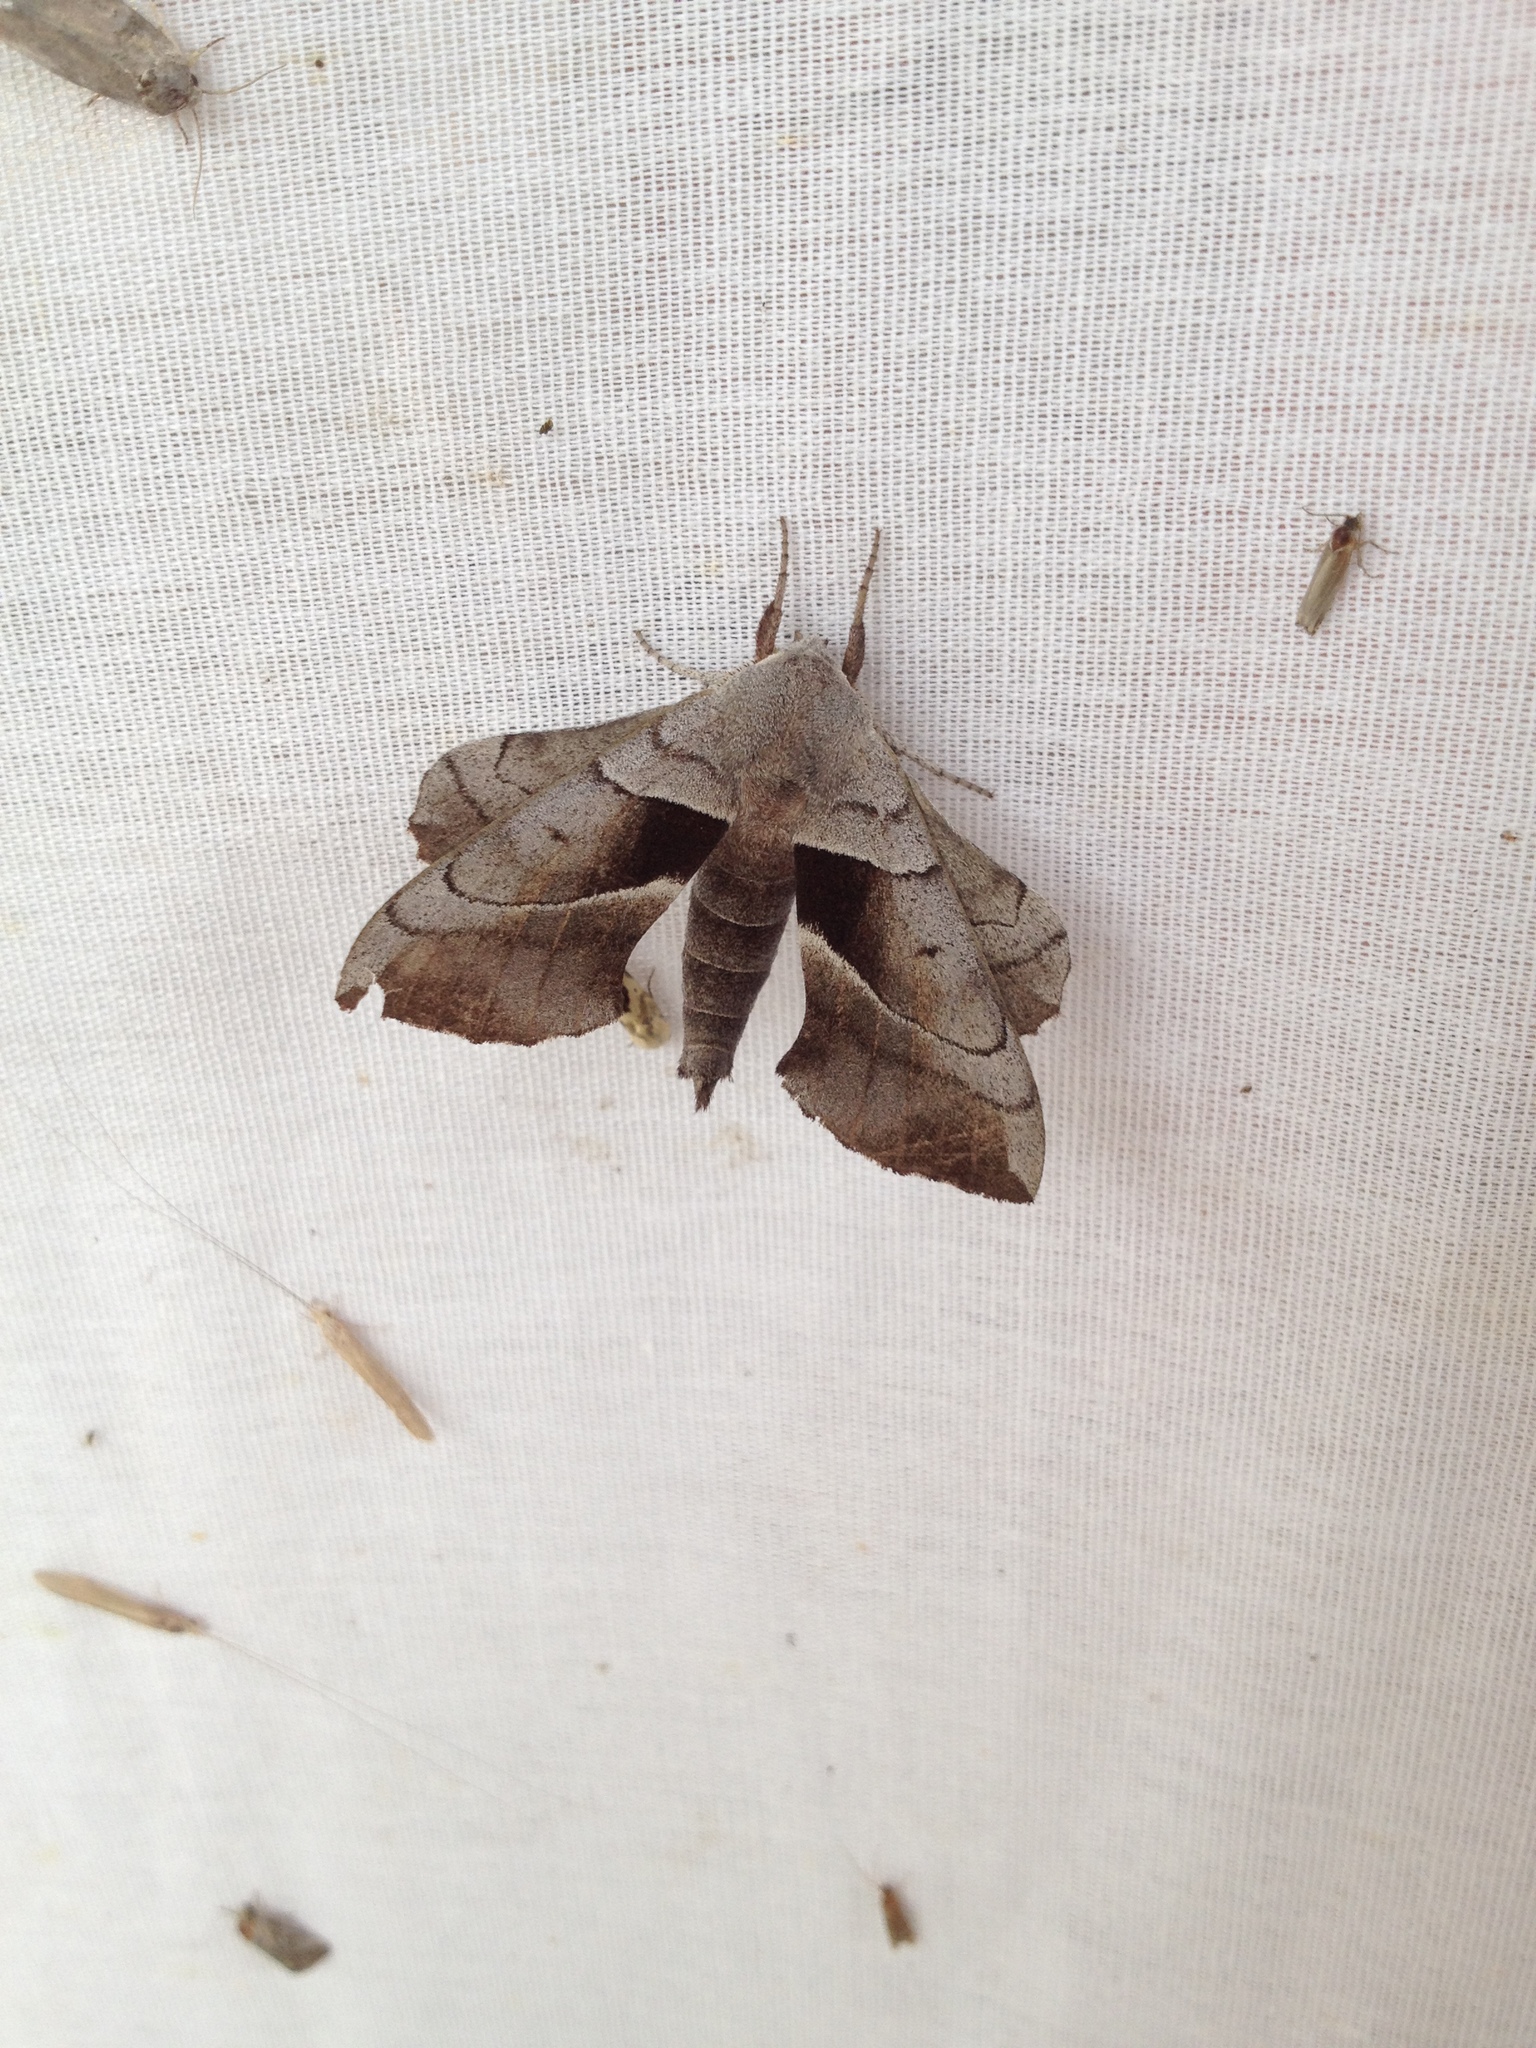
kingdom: Animalia
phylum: Arthropoda
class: Insecta
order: Lepidoptera
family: Sphingidae
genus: Amorpha
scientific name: Amorpha juglandis
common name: Walnut sphinx
